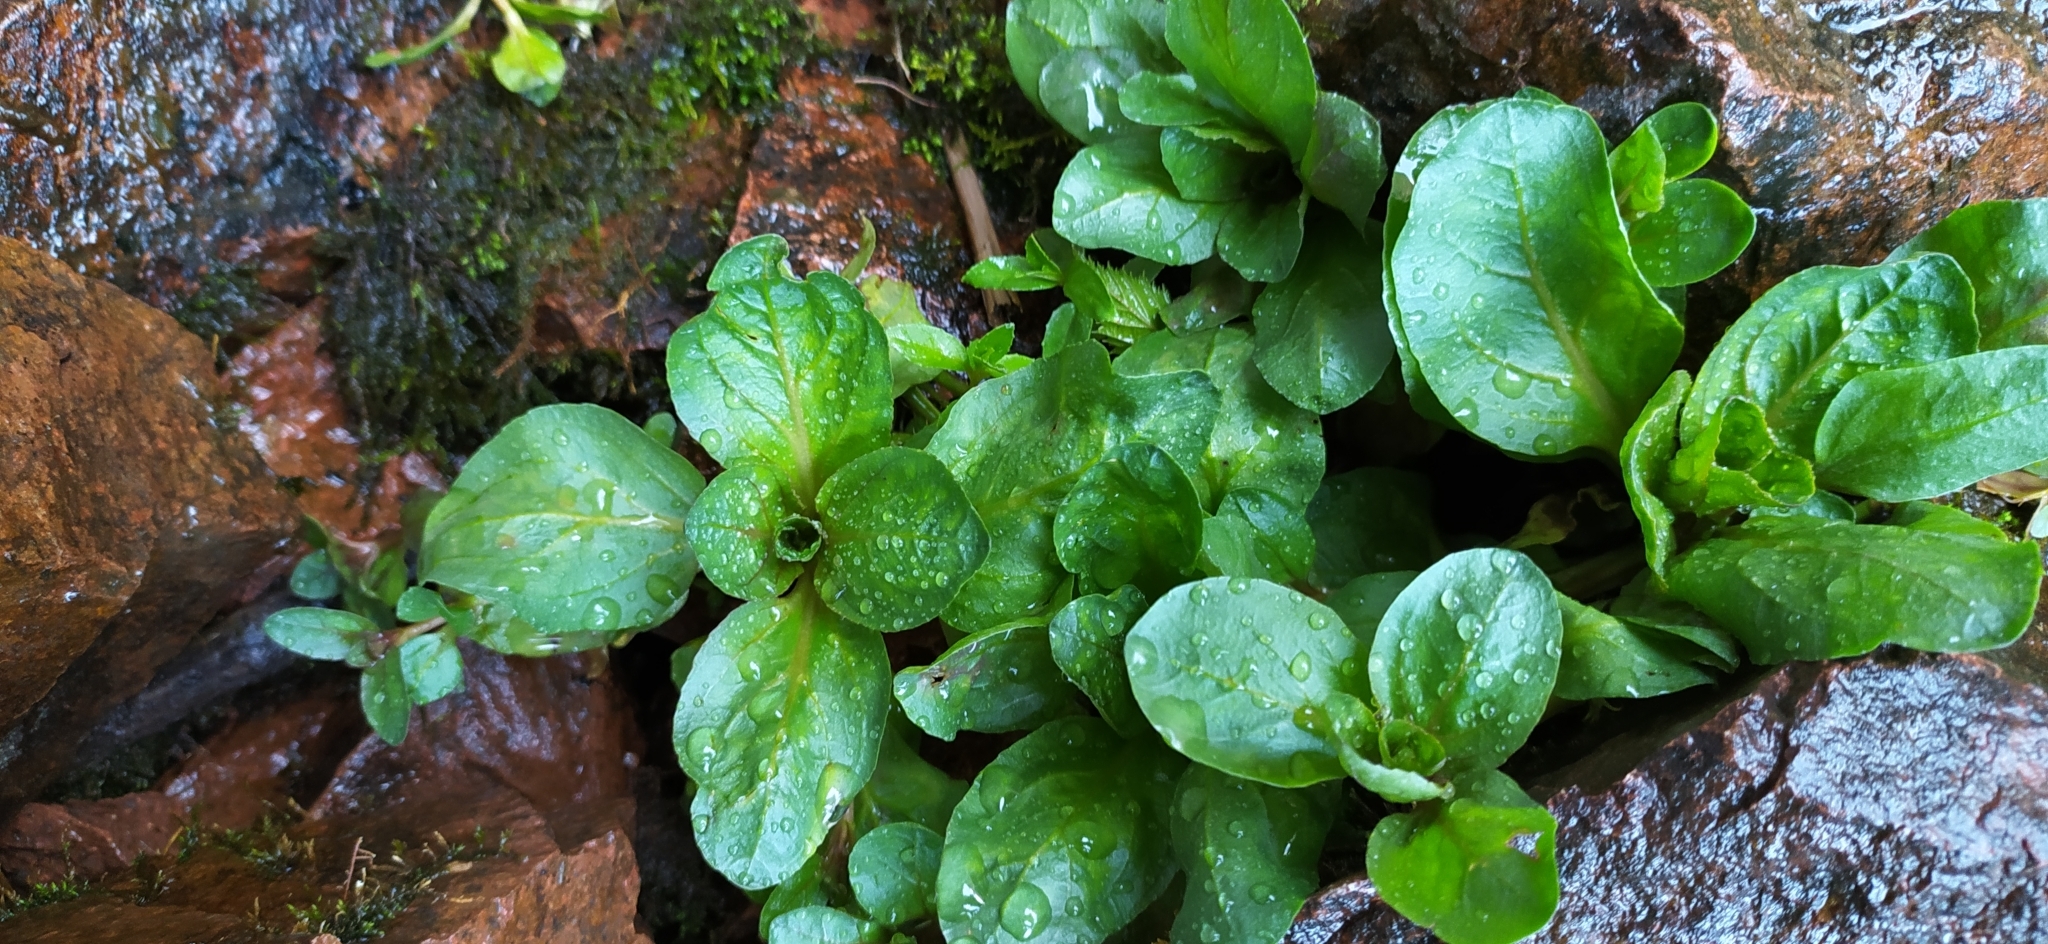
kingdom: Plantae
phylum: Tracheophyta
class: Magnoliopsida
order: Lamiales
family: Plantaginaceae
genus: Veronica
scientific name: Veronica beccabunga
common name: Brooklime
